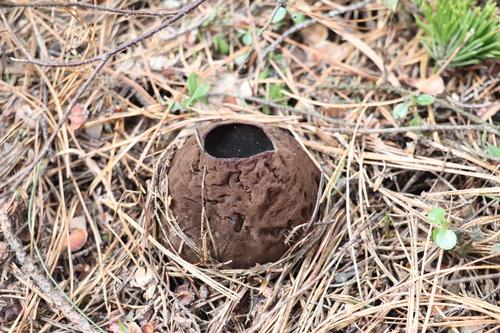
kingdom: Fungi
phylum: Ascomycota
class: Pezizomycetes
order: Pezizales
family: Sarcosomataceae
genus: Sarcosoma
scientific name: Sarcosoma globosum
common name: Charred-pancake cup
